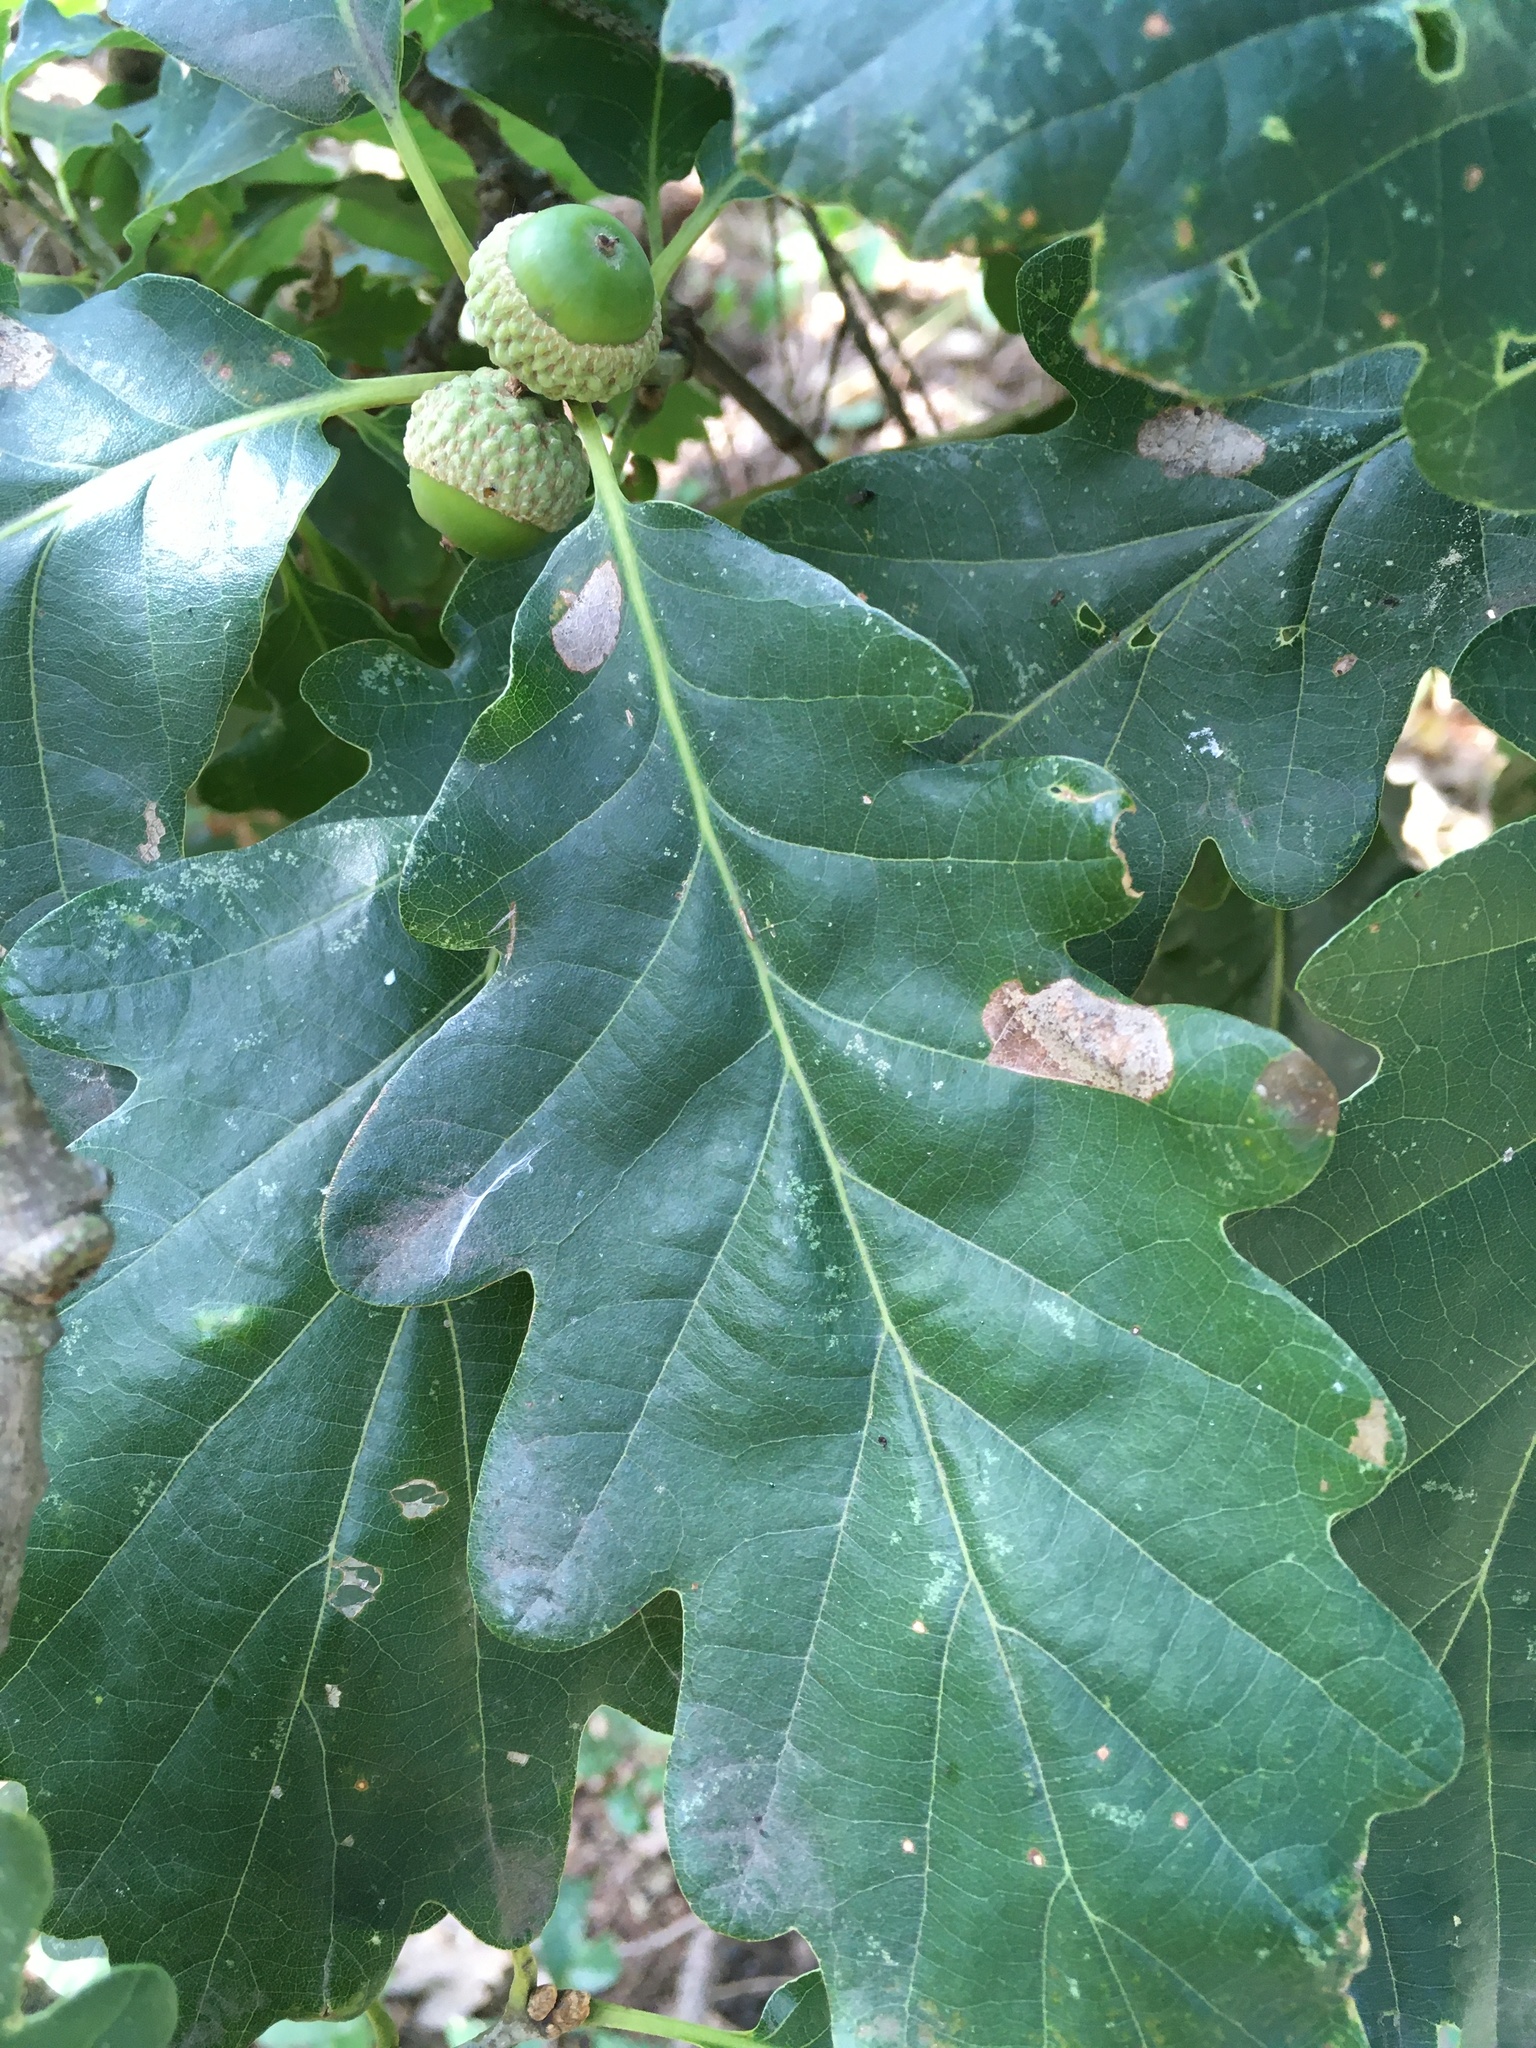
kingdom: Plantae
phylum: Tracheophyta
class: Magnoliopsida
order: Fagales
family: Fagaceae
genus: Quercus
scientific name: Quercus petraea
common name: Sessile oak
